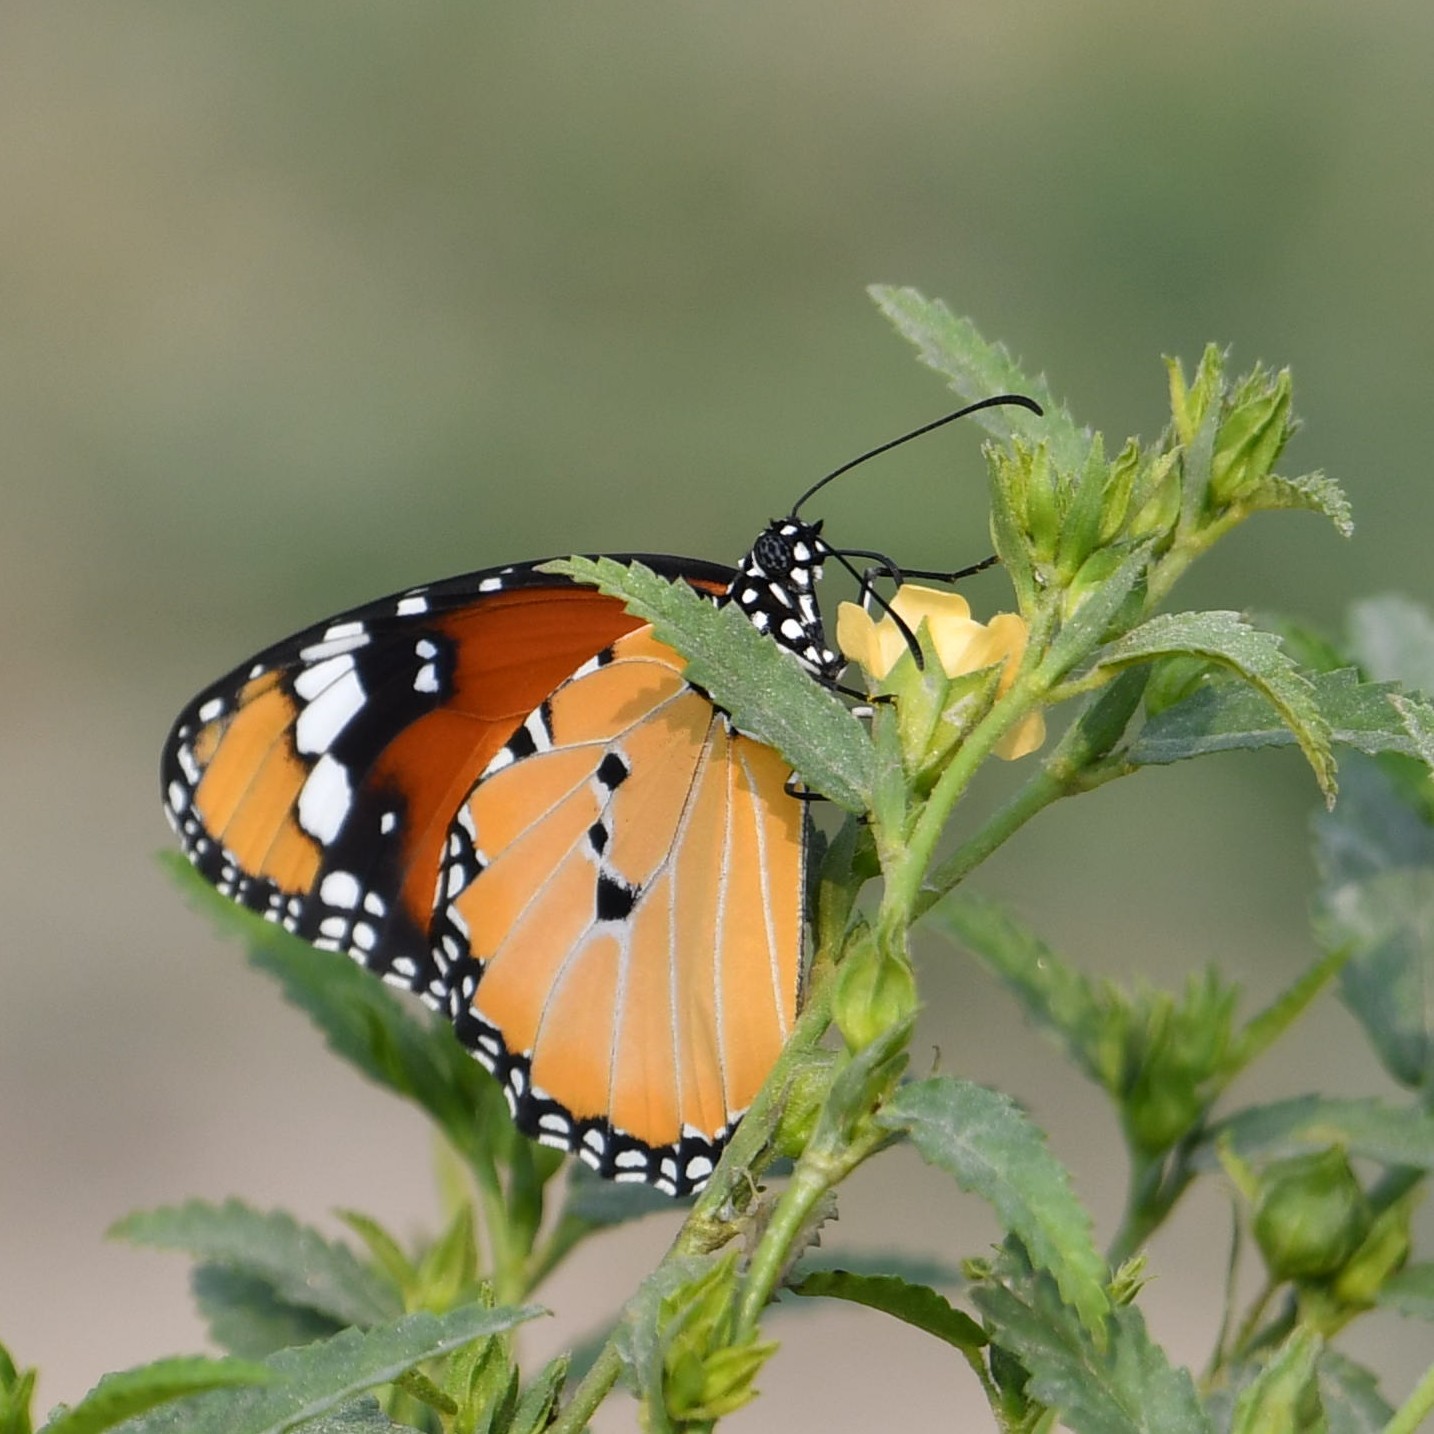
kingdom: Animalia
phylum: Arthropoda
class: Insecta
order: Lepidoptera
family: Nymphalidae
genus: Danaus
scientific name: Danaus chrysippus
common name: Plain tiger
